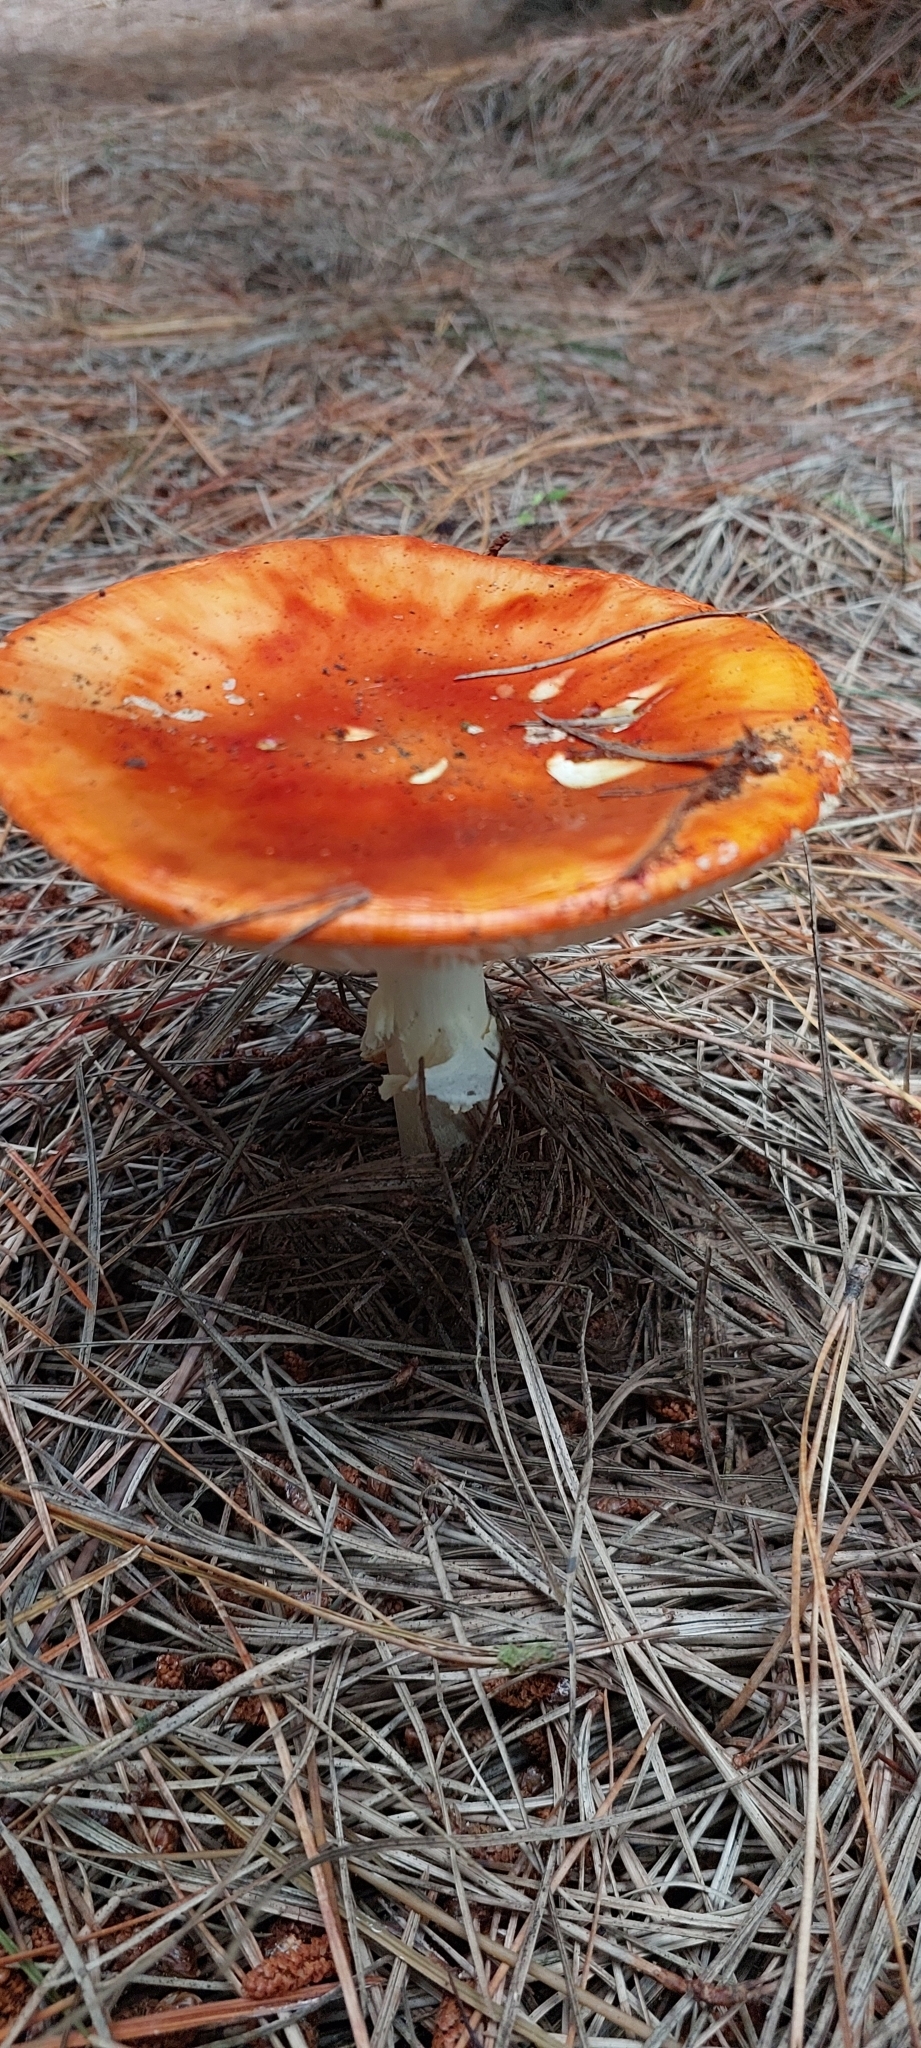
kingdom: Fungi
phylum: Basidiomycota
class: Agaricomycetes
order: Agaricales
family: Amanitaceae
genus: Amanita
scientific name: Amanita muscaria
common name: Fly agaric
